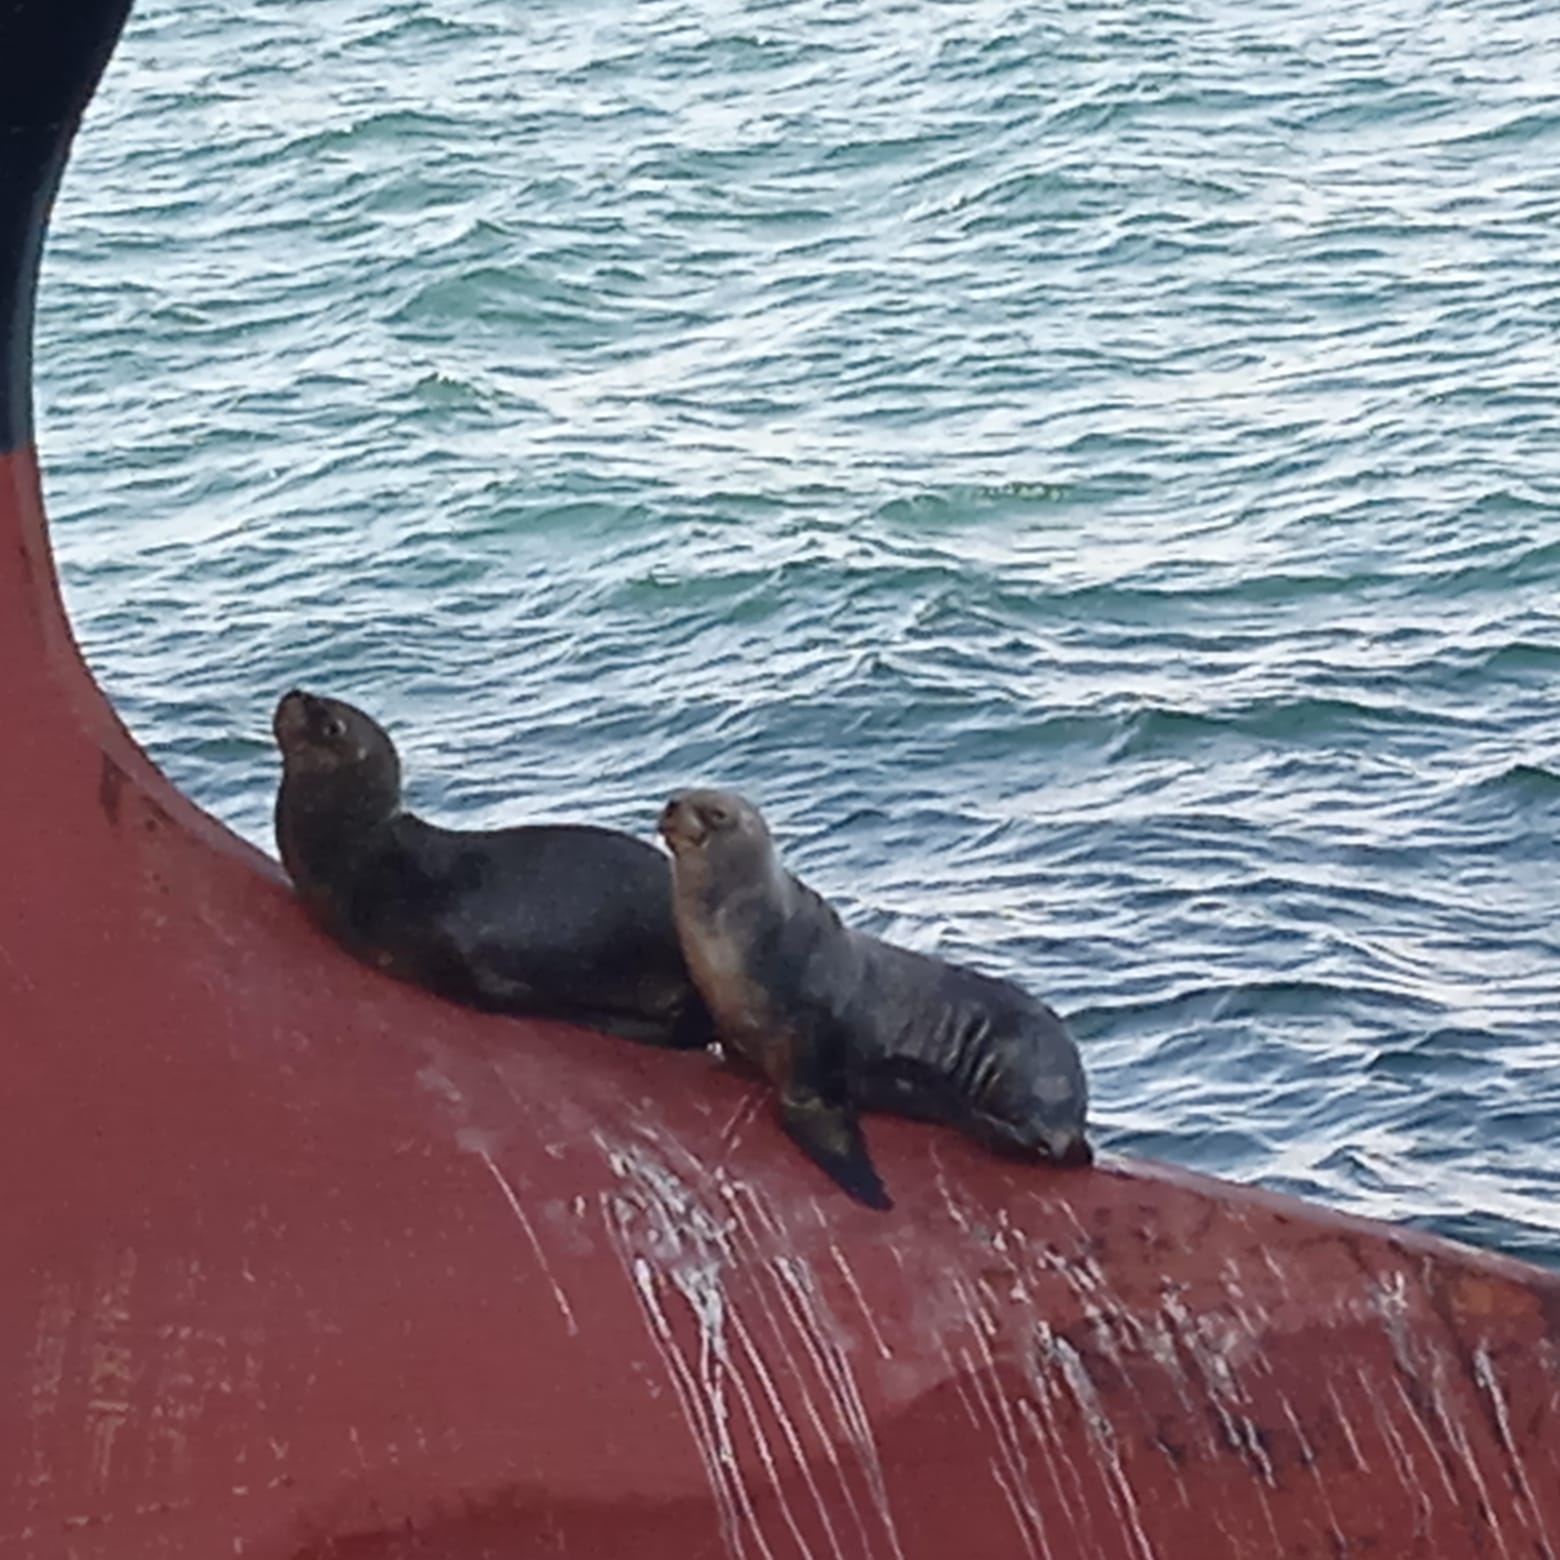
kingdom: Animalia
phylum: Chordata
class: Mammalia
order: Carnivora
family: Otariidae
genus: Otaria
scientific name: Otaria byronia
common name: South american sea lion
